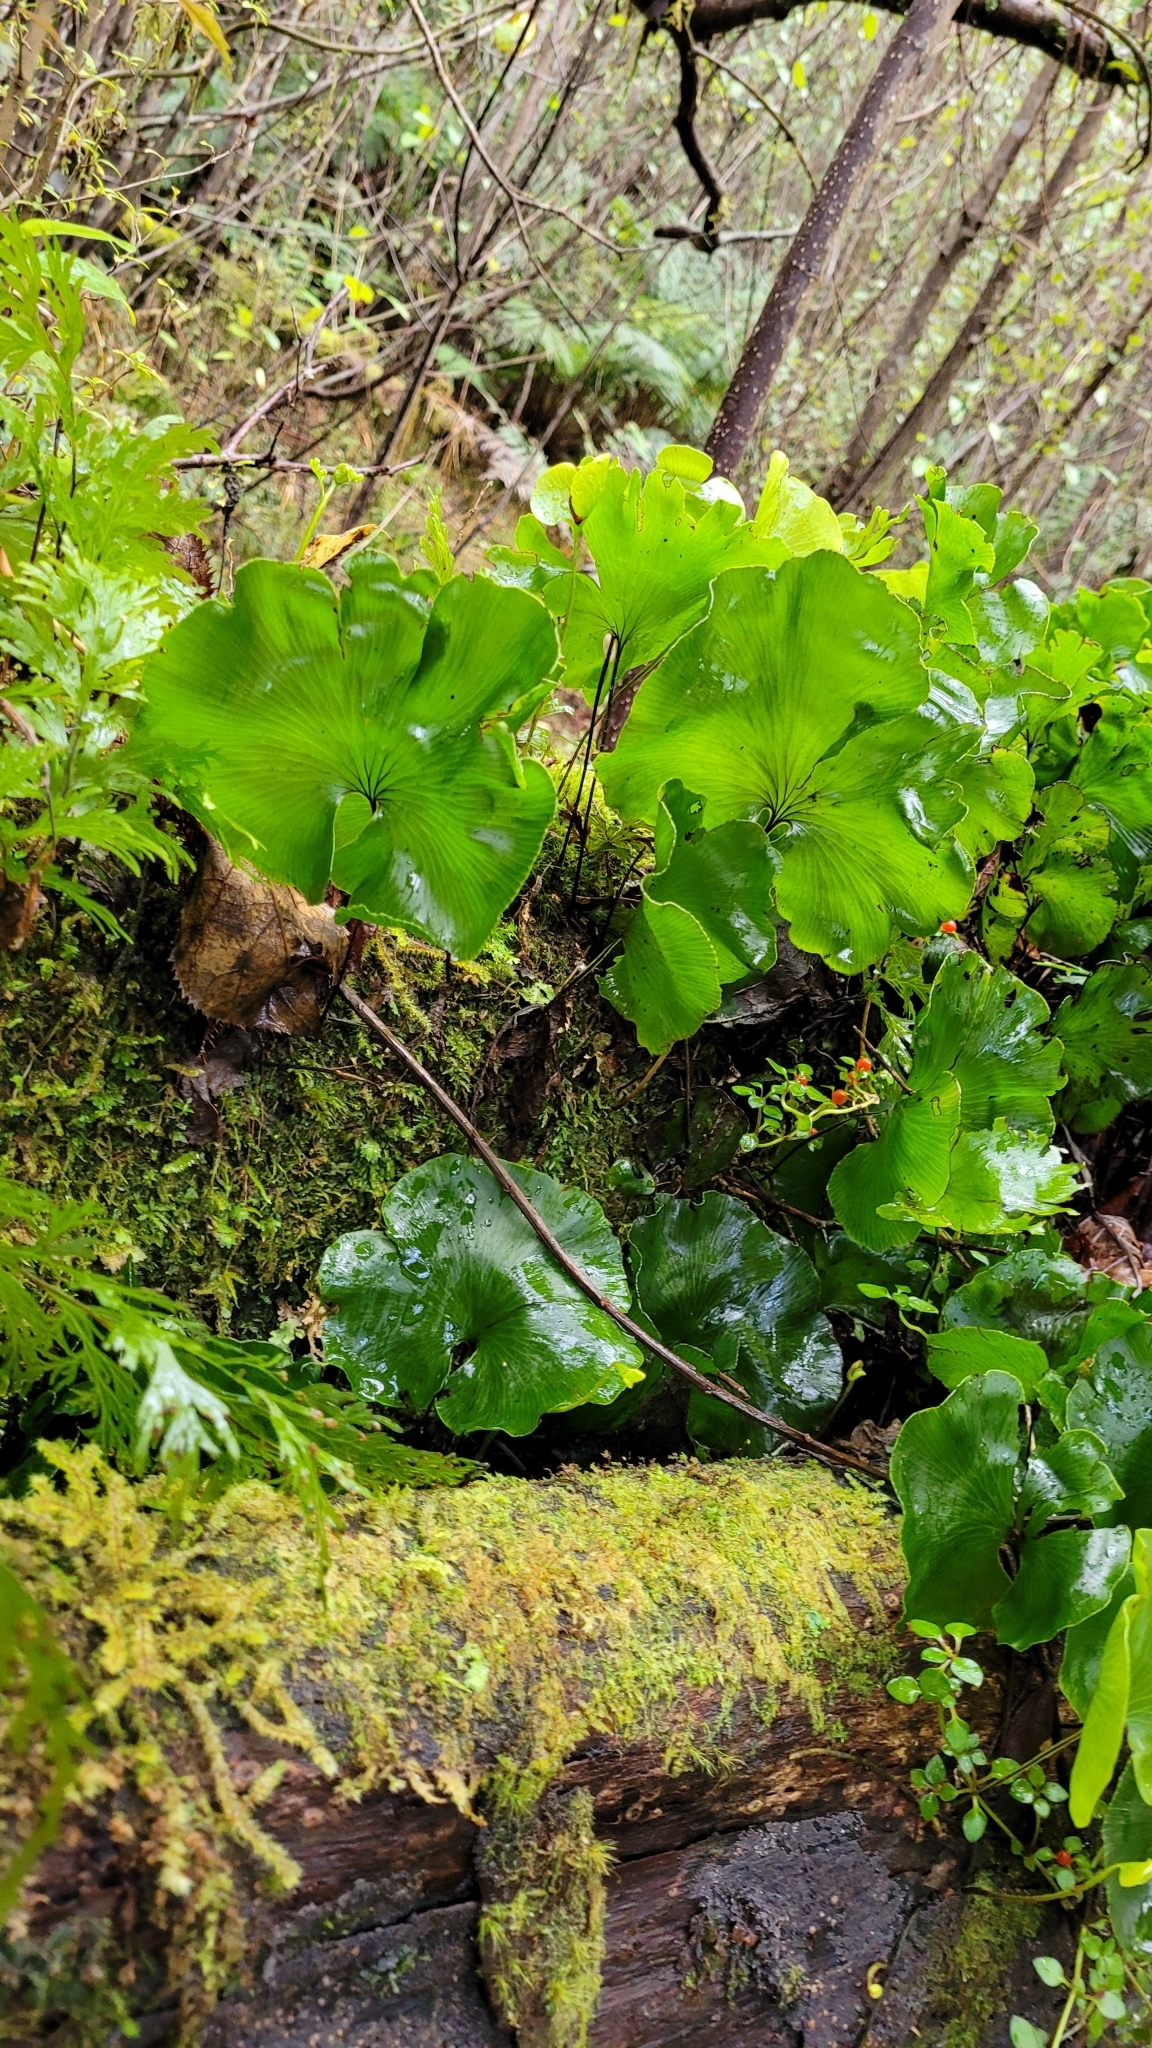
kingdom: Plantae
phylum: Tracheophyta
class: Polypodiopsida
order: Hymenophyllales
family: Hymenophyllaceae
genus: Hymenophyllum
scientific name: Hymenophyllum nephrophyllum
